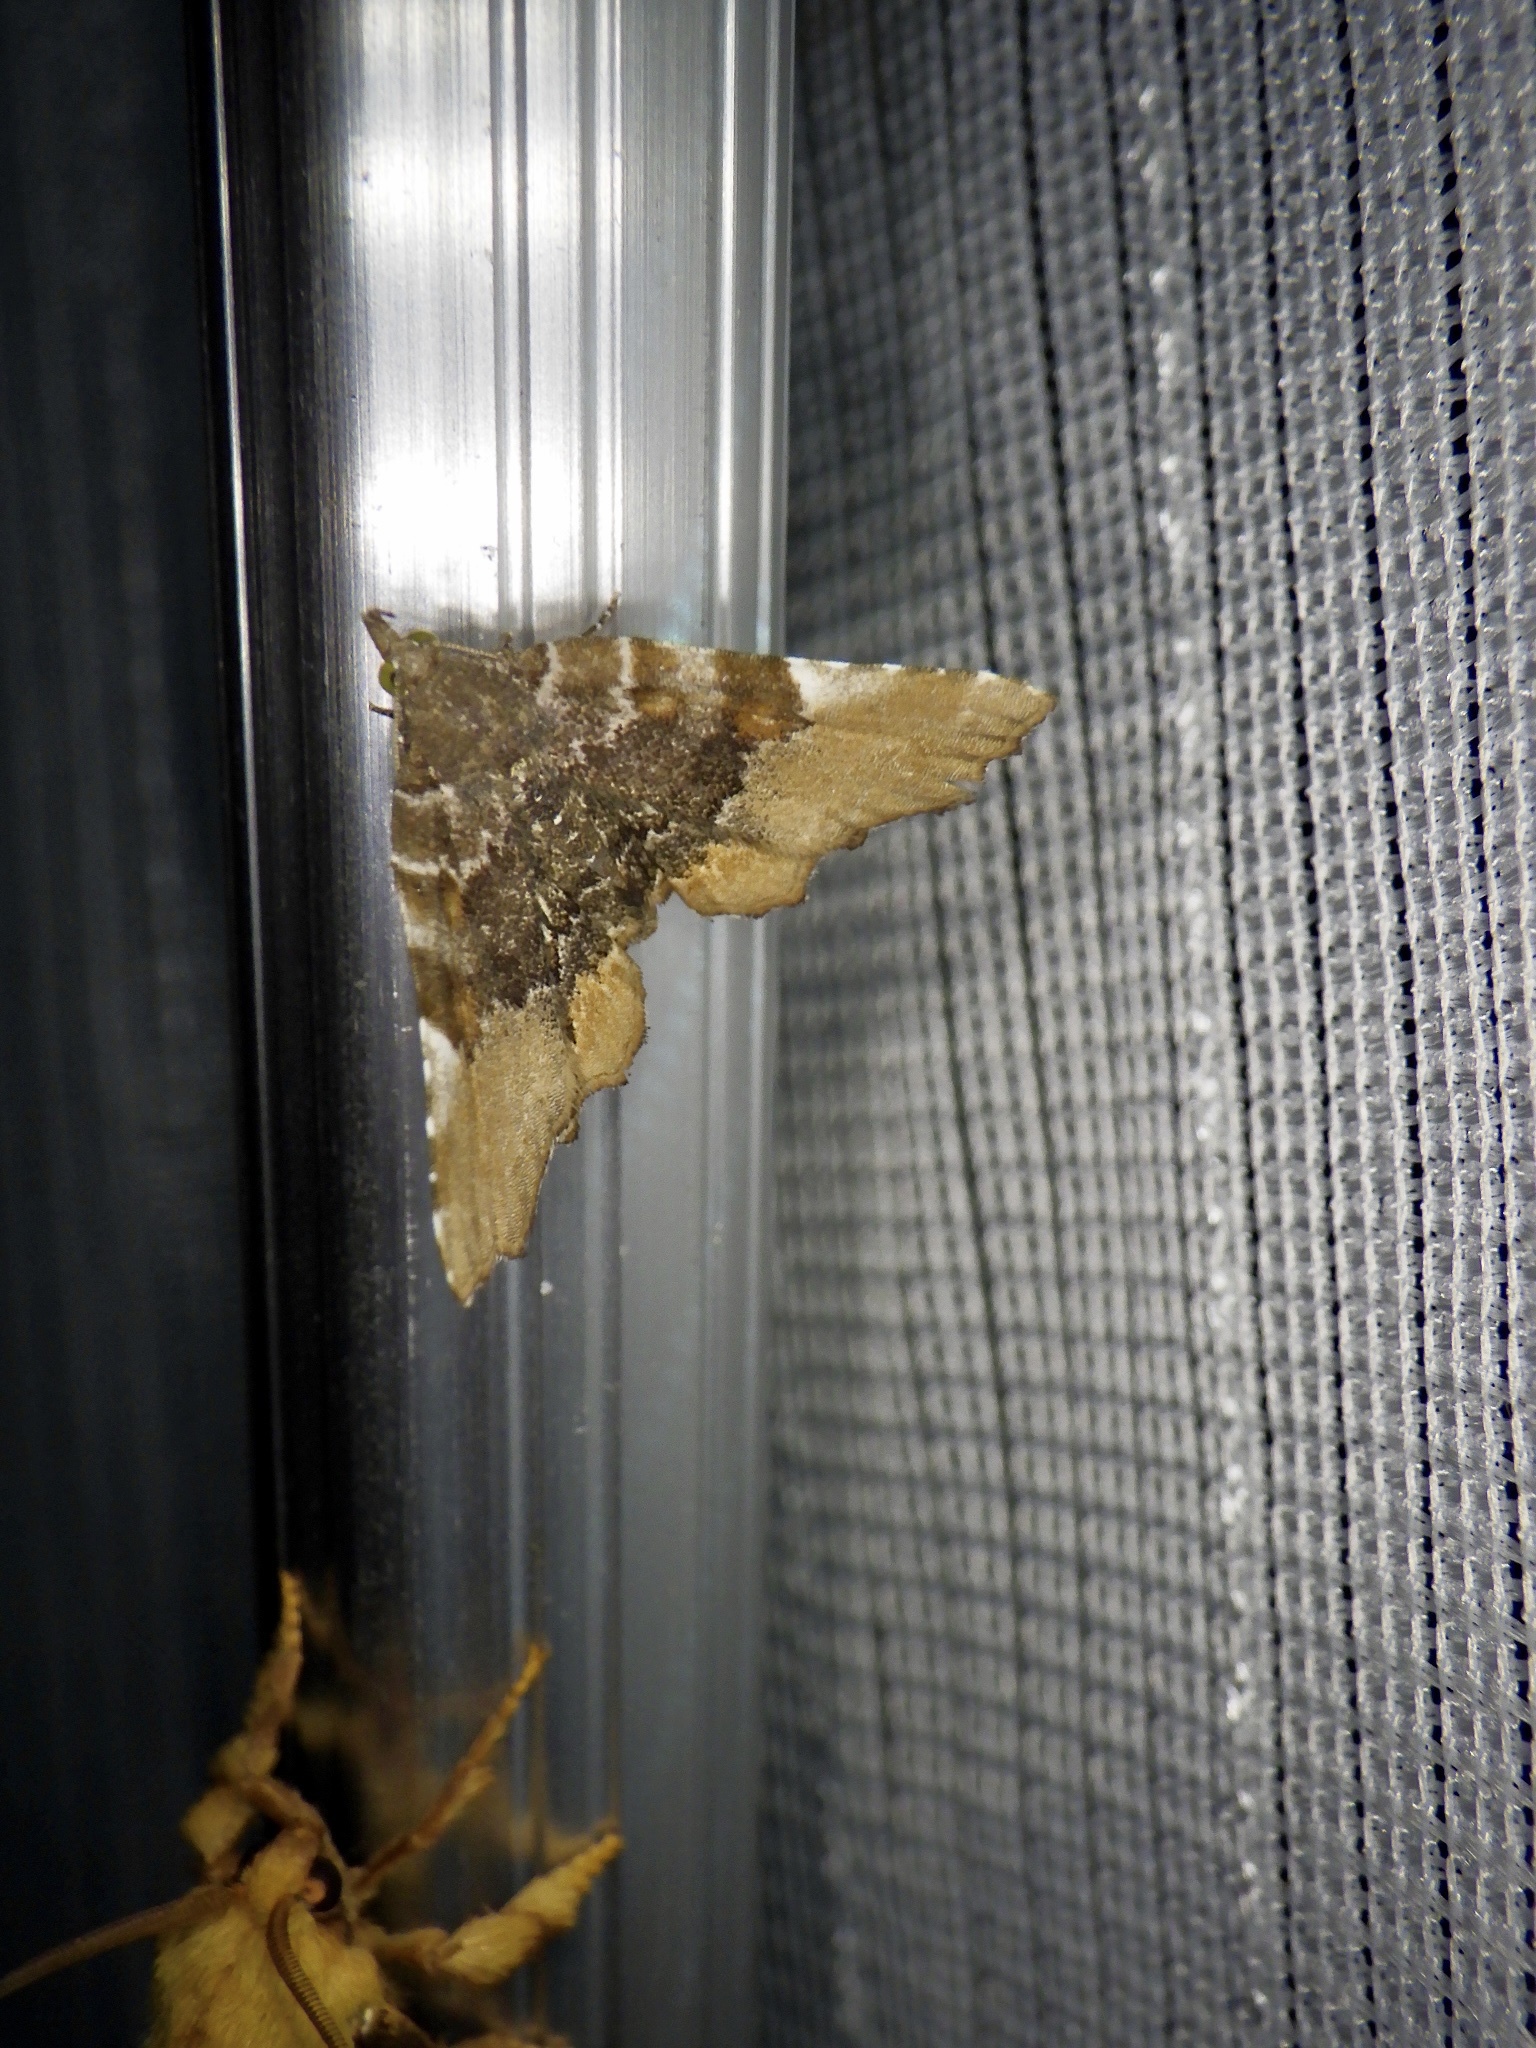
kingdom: Animalia
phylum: Arthropoda
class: Insecta
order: Lepidoptera
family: Erebidae
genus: Pangrapta
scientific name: Pangrapta vasava
